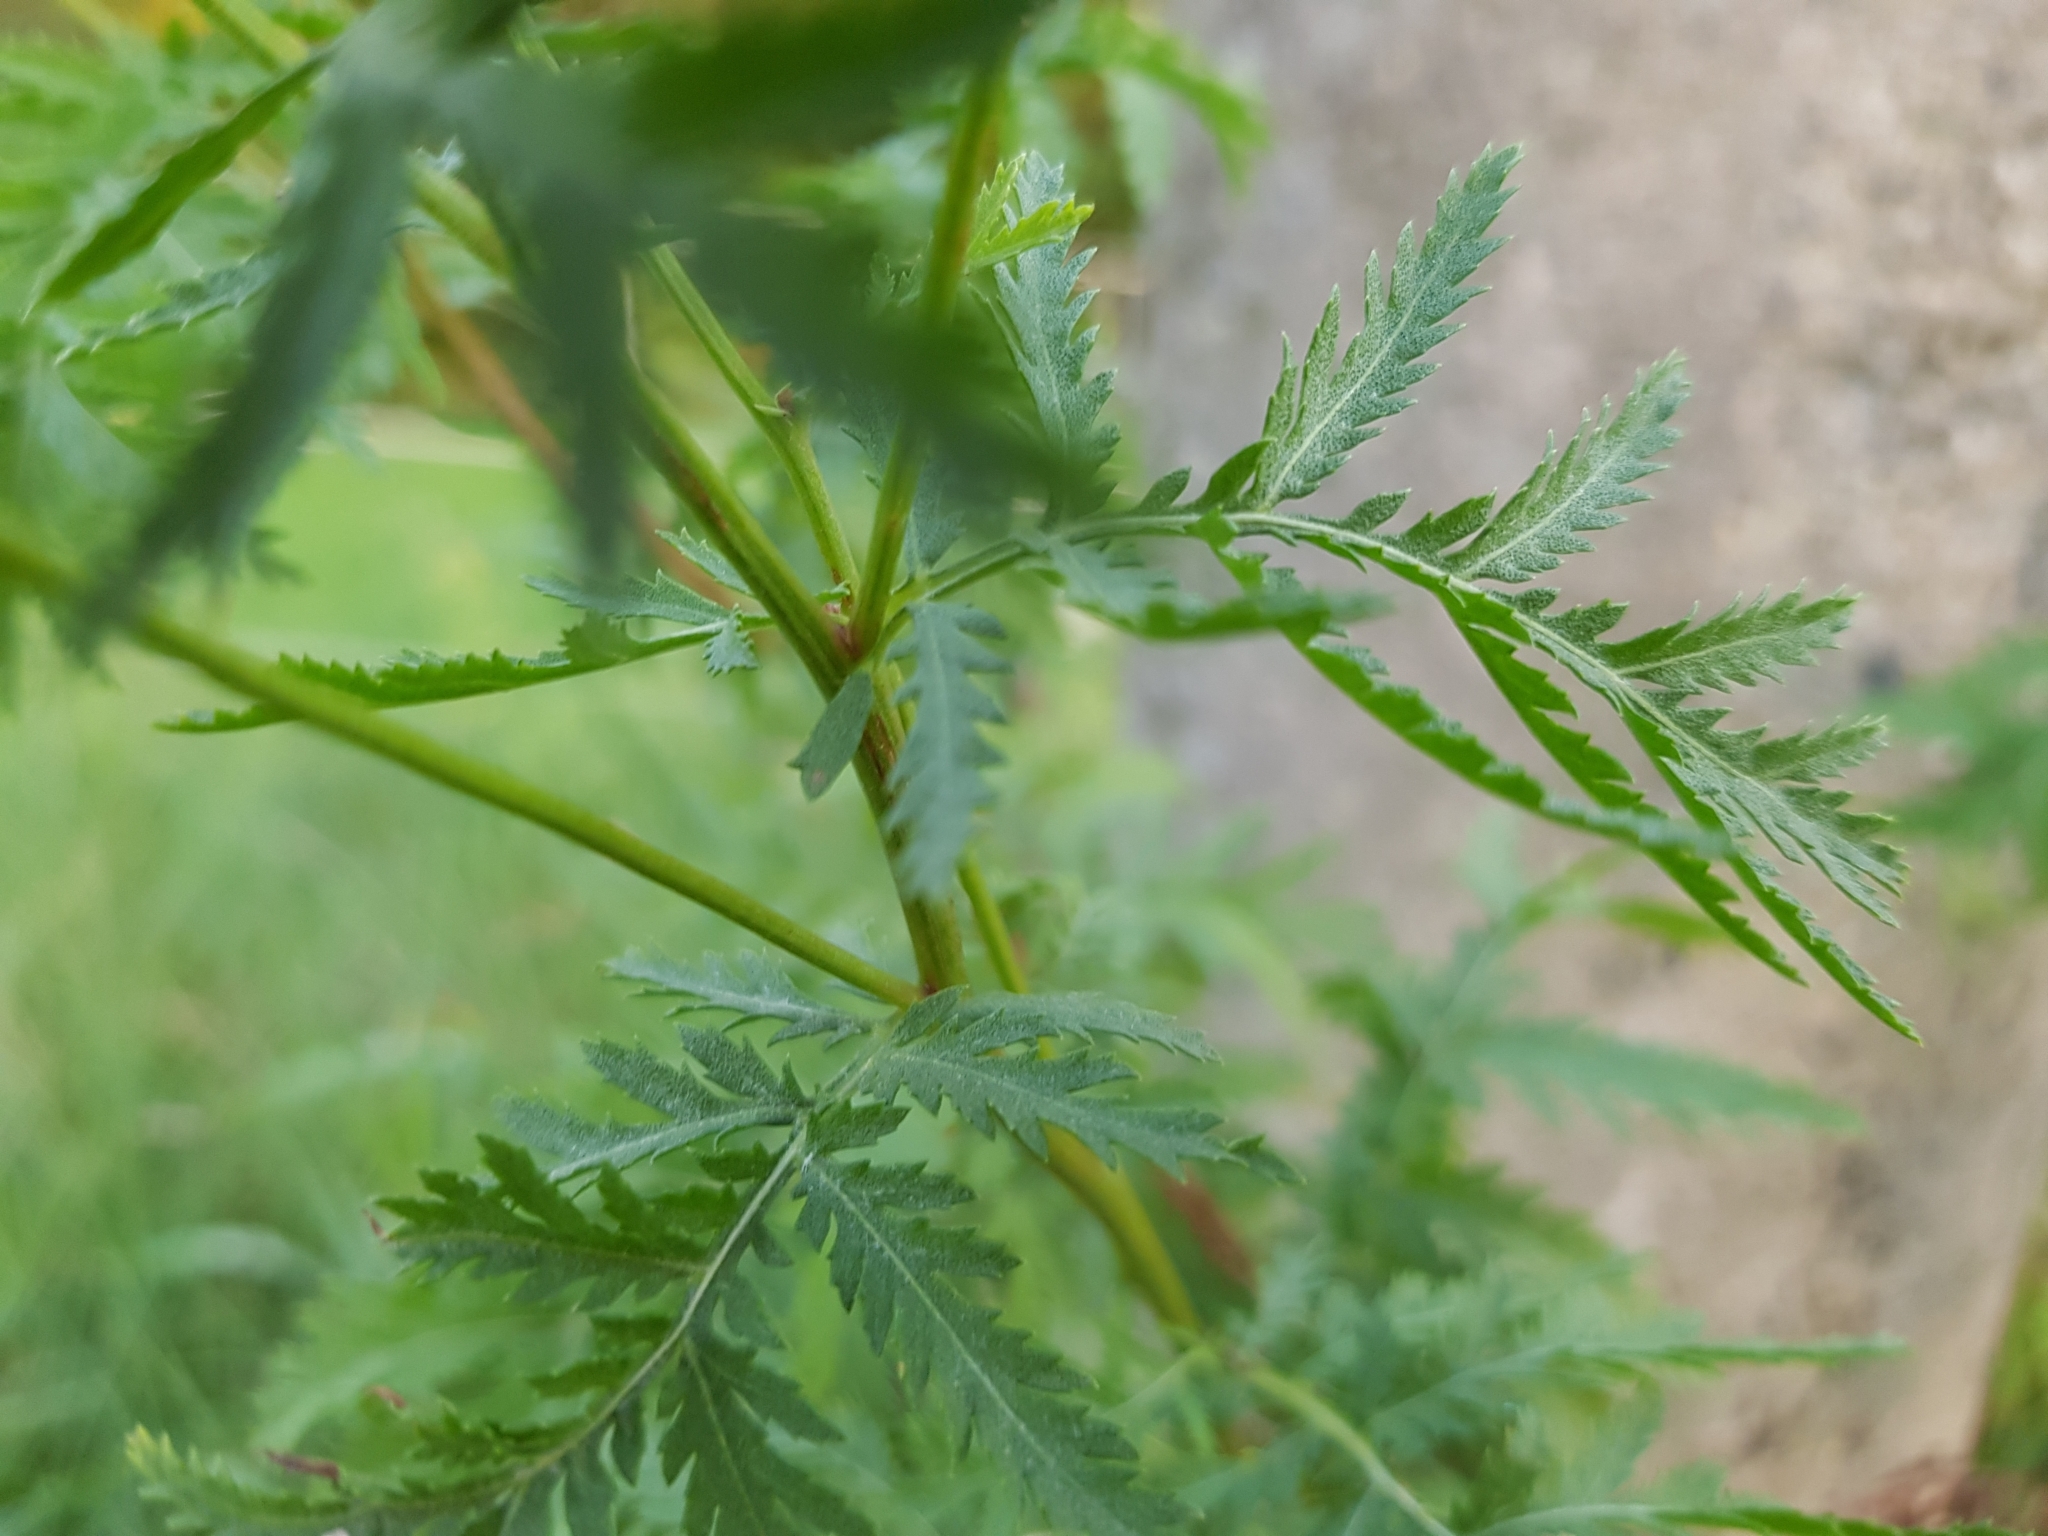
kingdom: Plantae
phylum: Tracheophyta
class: Magnoliopsida
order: Asterales
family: Asteraceae
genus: Tanacetum
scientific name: Tanacetum vulgare
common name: Common tansy
